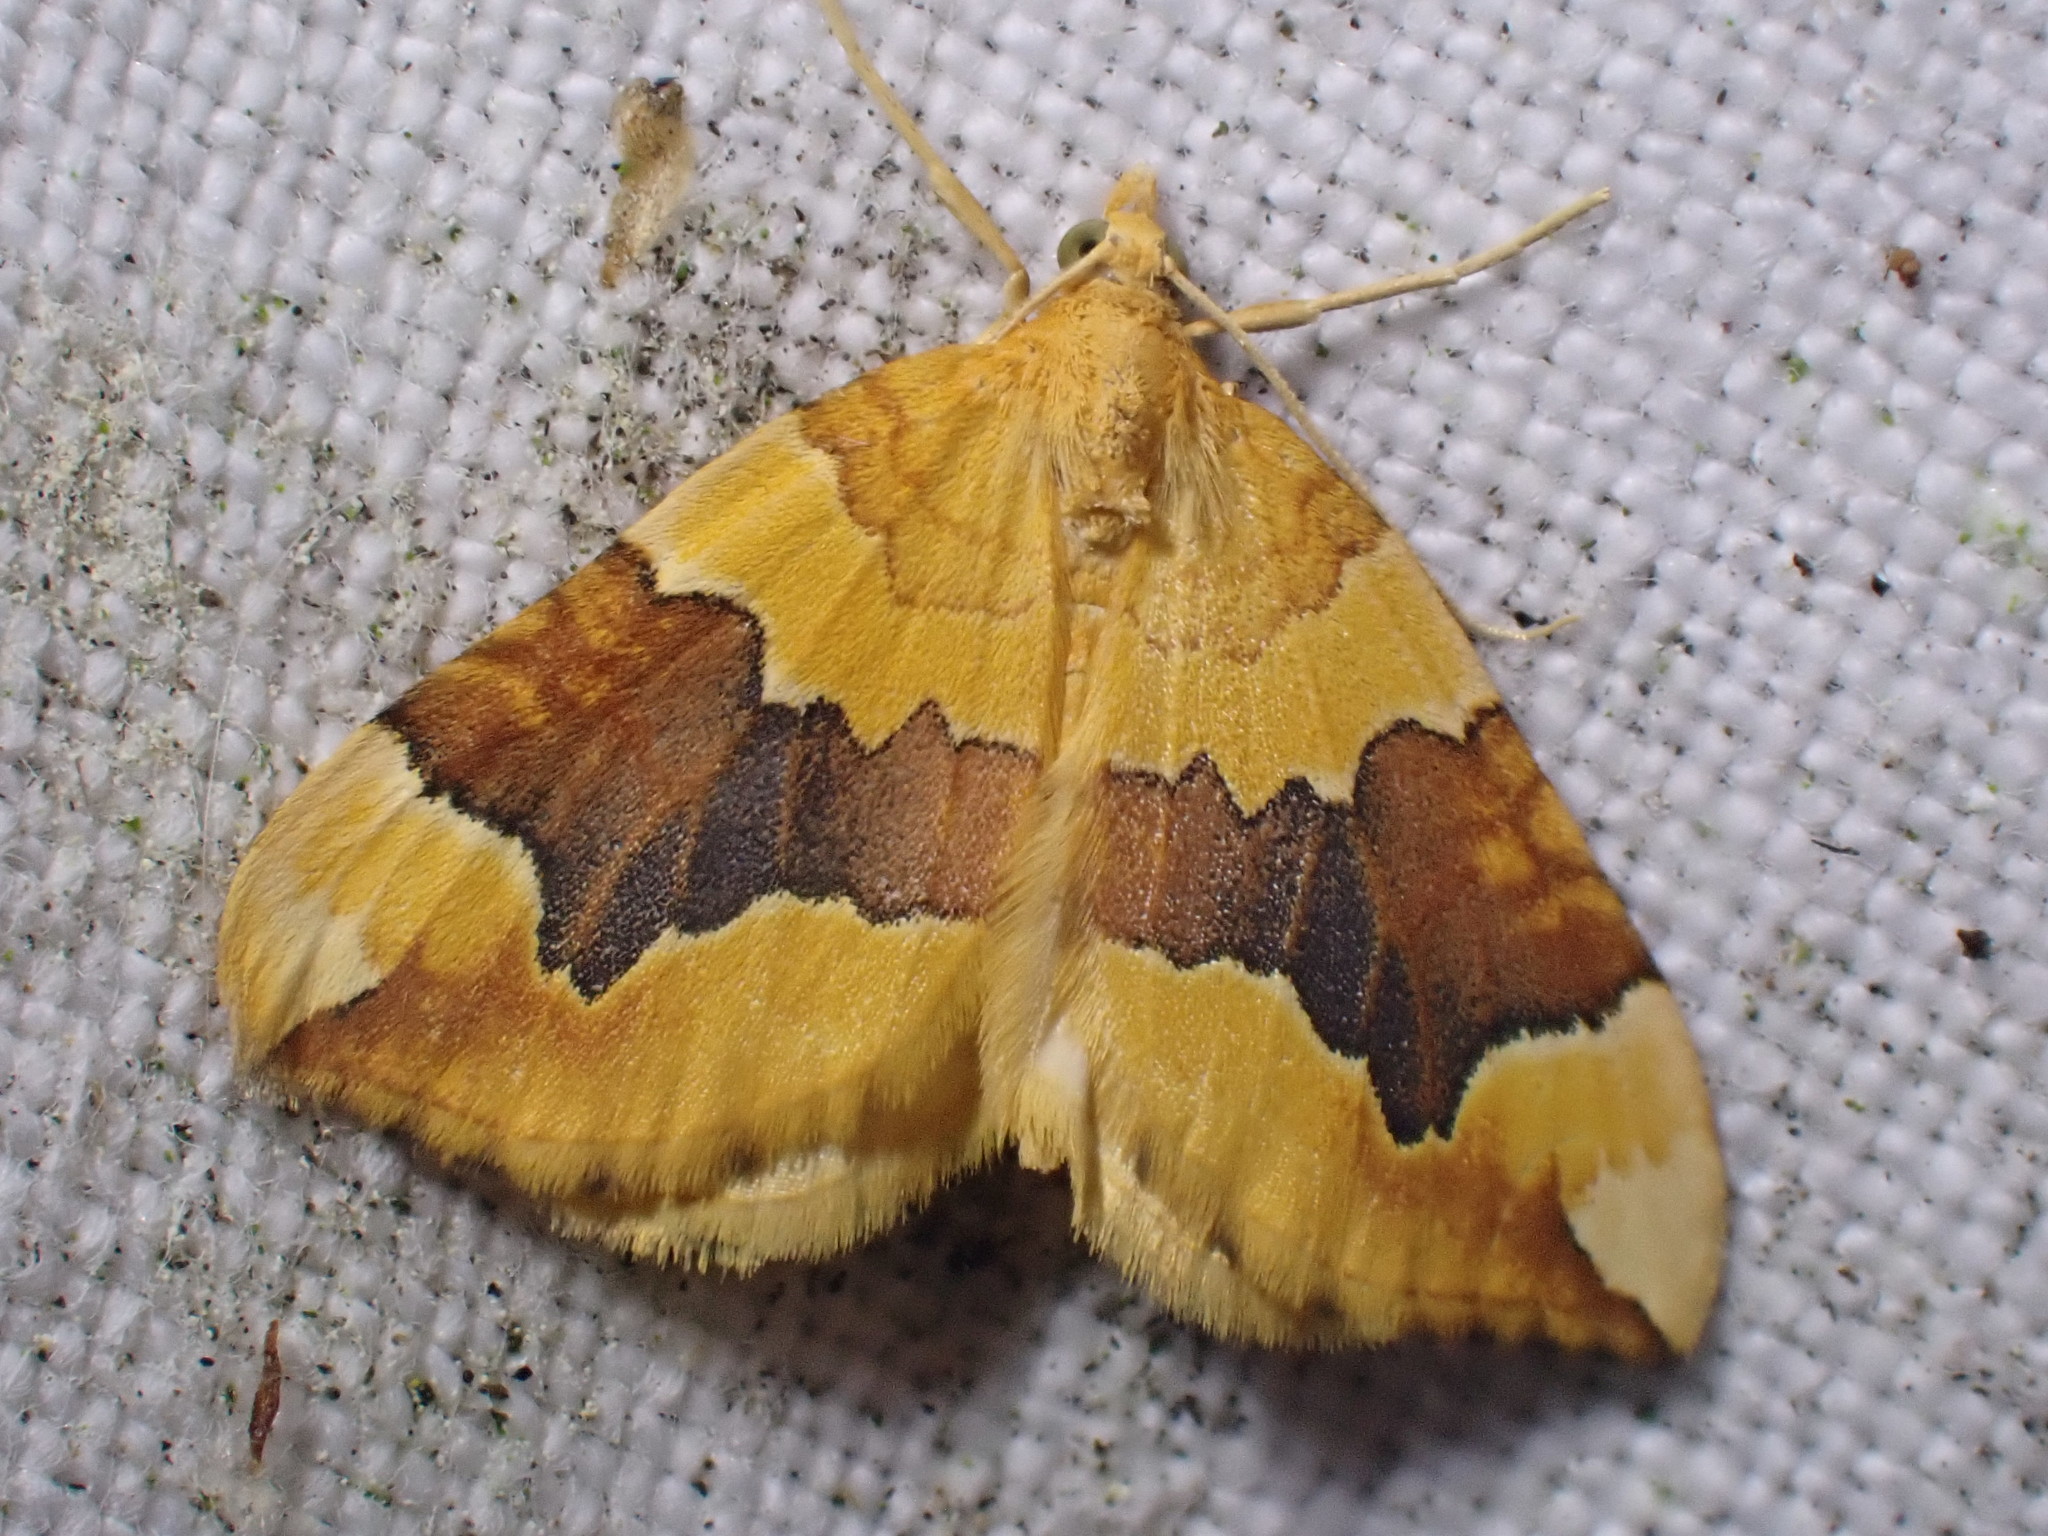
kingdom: Animalia
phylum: Arthropoda
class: Insecta
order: Lepidoptera
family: Geometridae
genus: Cidaria
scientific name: Cidaria fulvata
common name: Barred yellow
